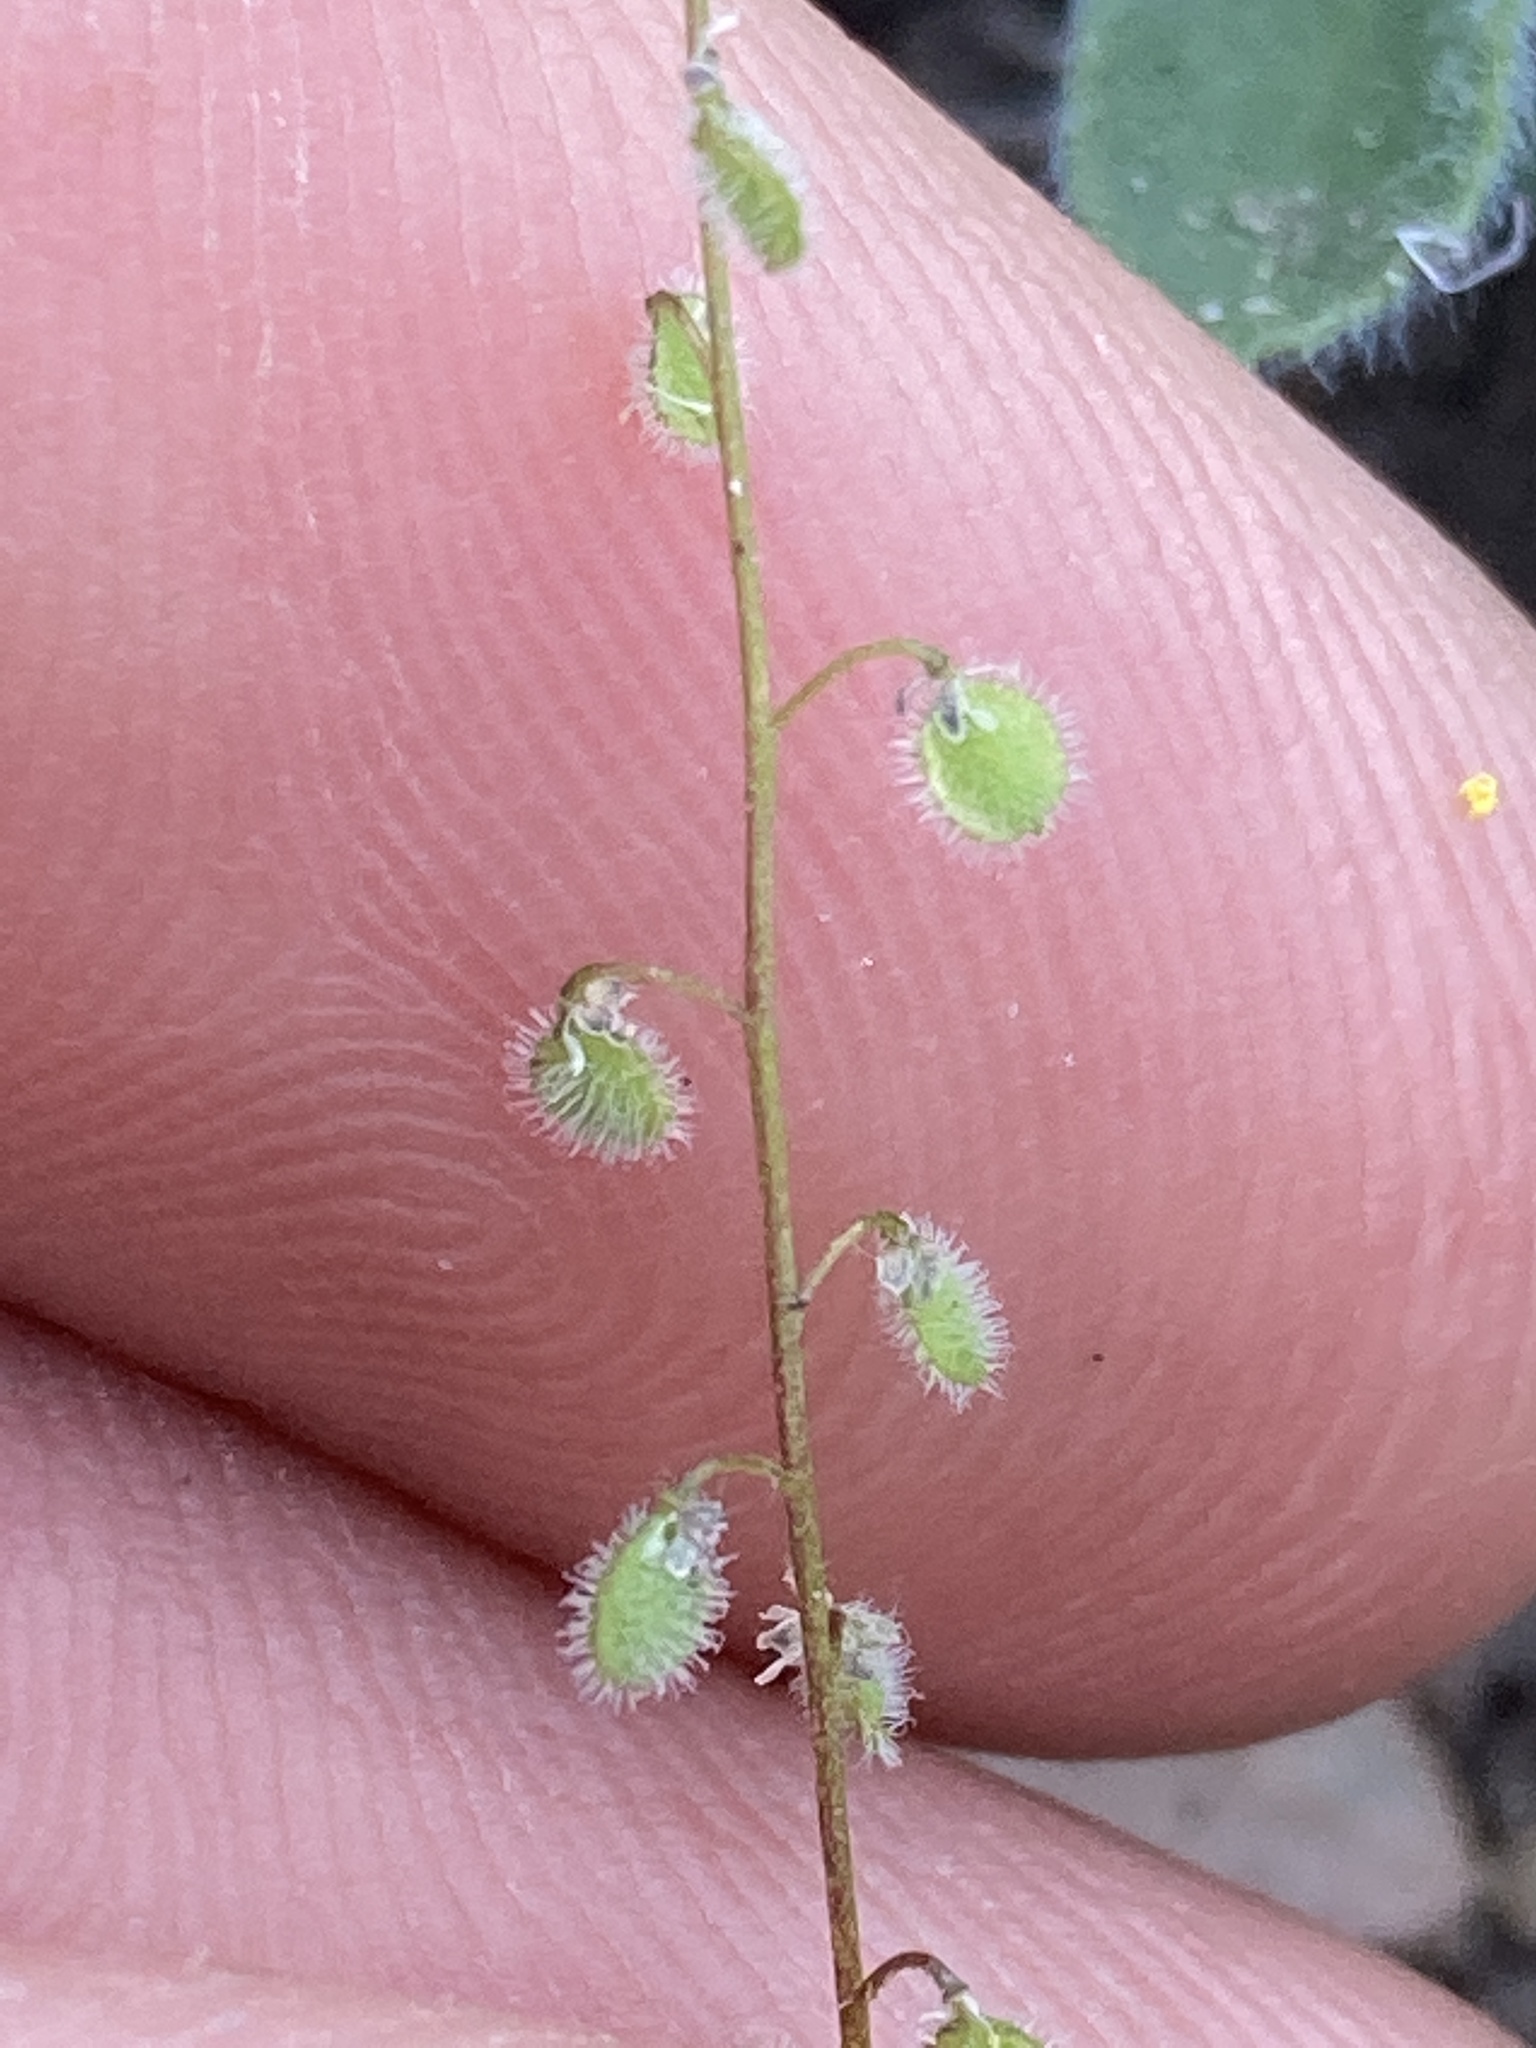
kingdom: Plantae
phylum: Tracheophyta
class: Magnoliopsida
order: Brassicales
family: Brassicaceae
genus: Athysanus
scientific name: Athysanus pusillus
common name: Common sandweed
